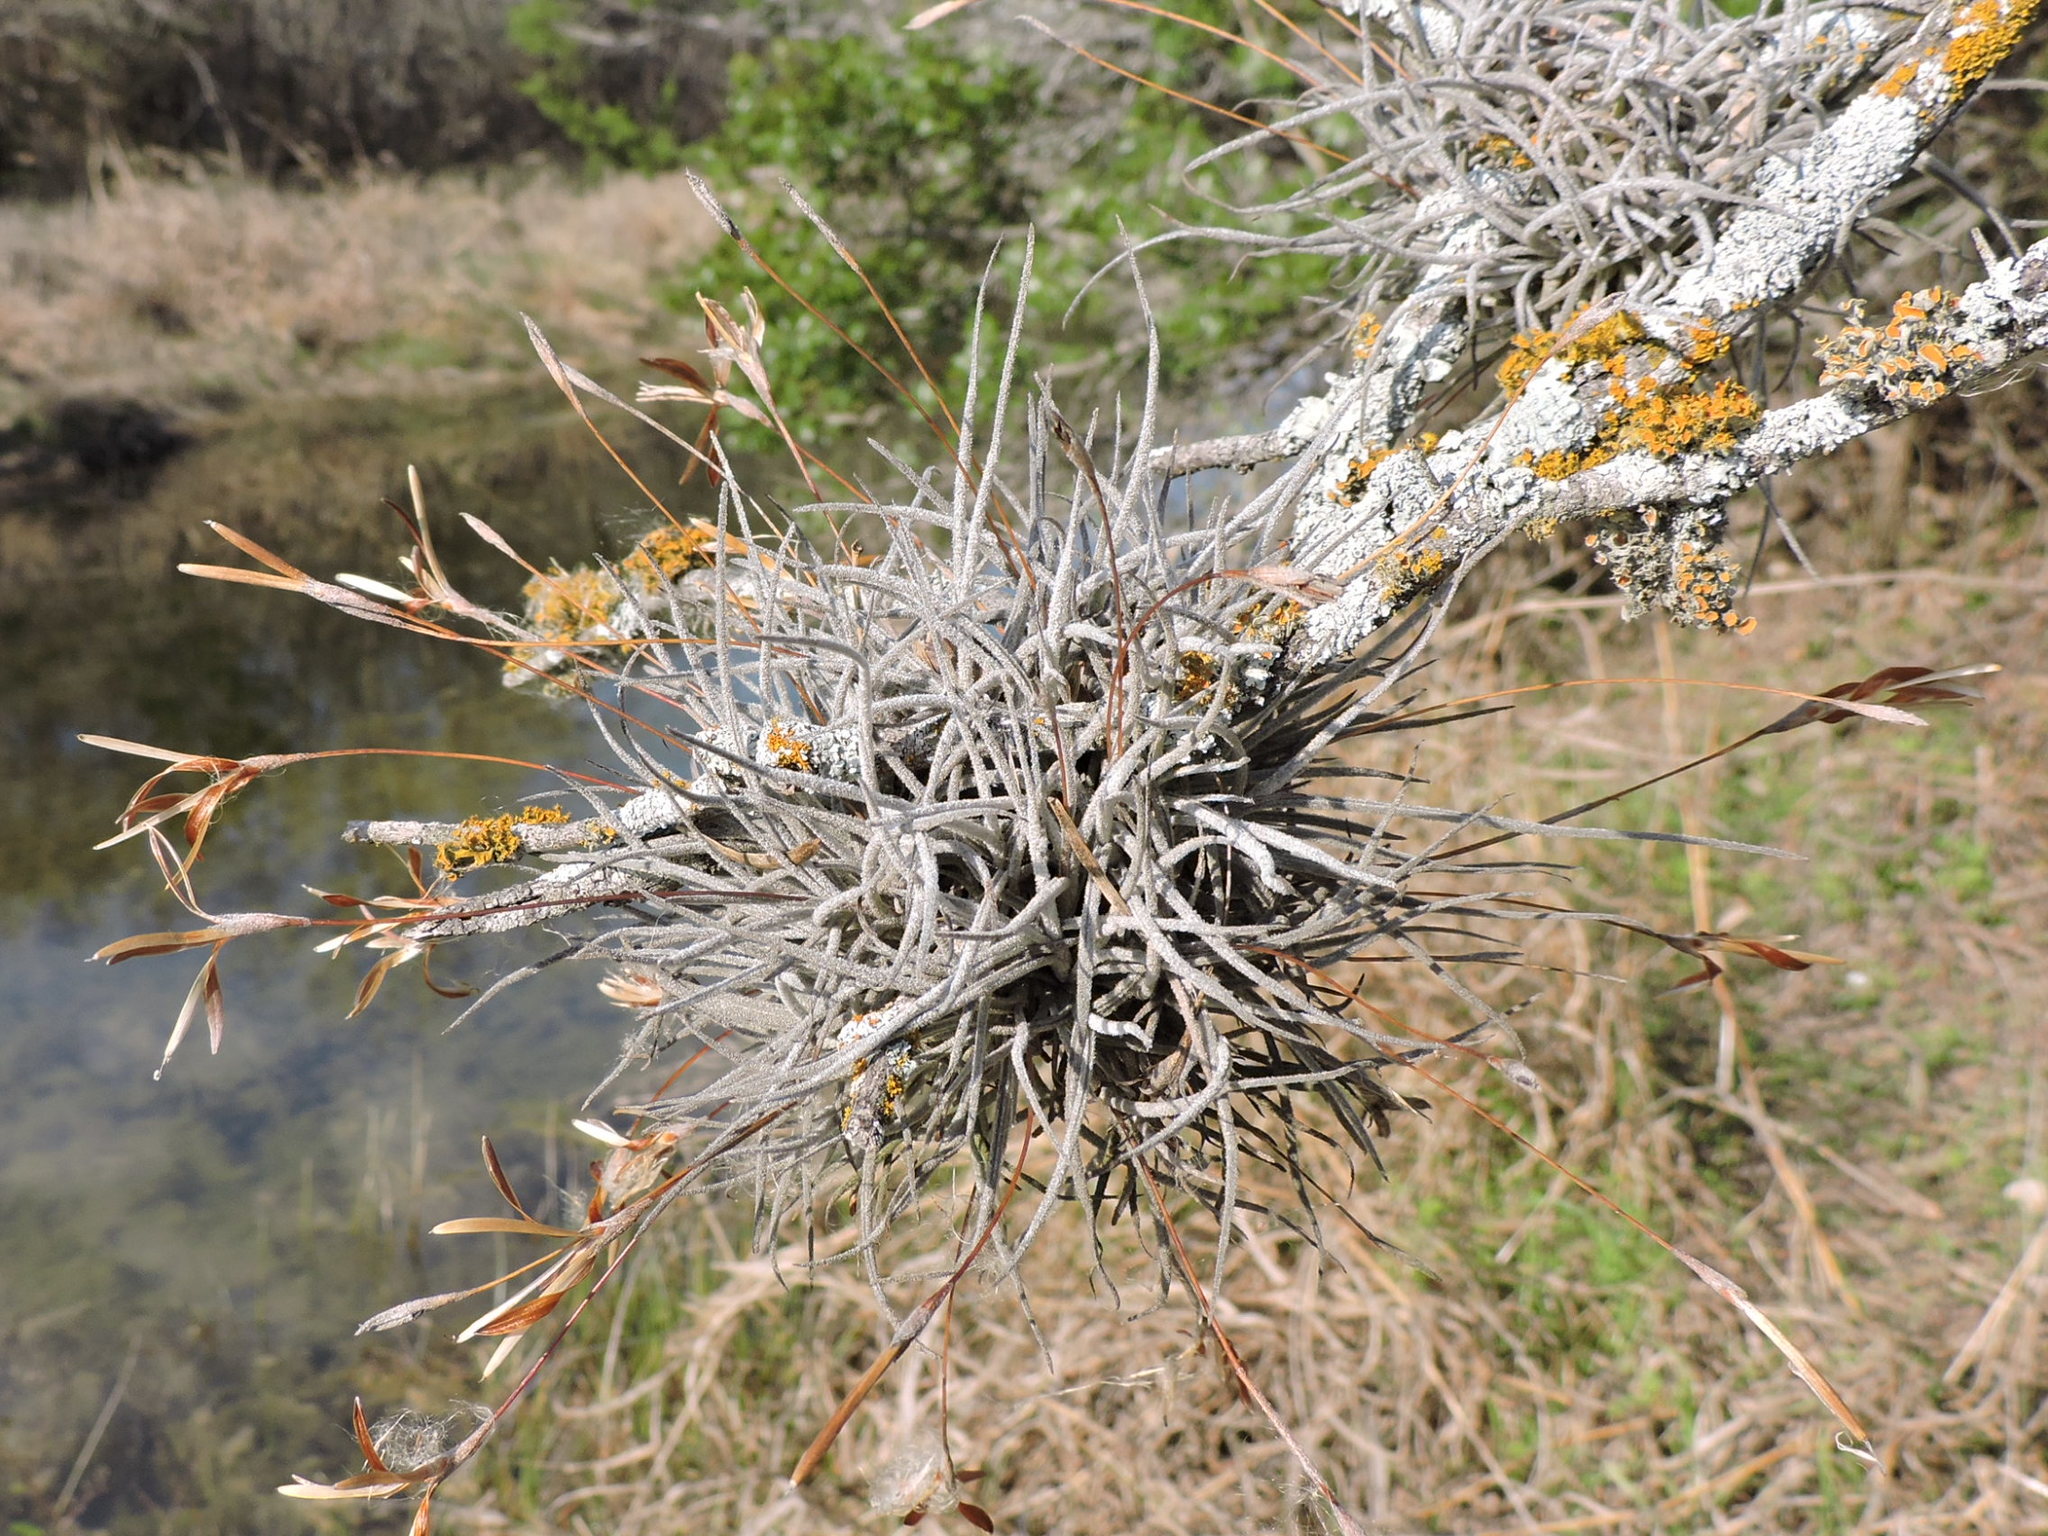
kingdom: Plantae
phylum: Tracheophyta
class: Liliopsida
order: Poales
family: Bromeliaceae
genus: Tillandsia
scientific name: Tillandsia recurvata
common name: Small ballmoss
